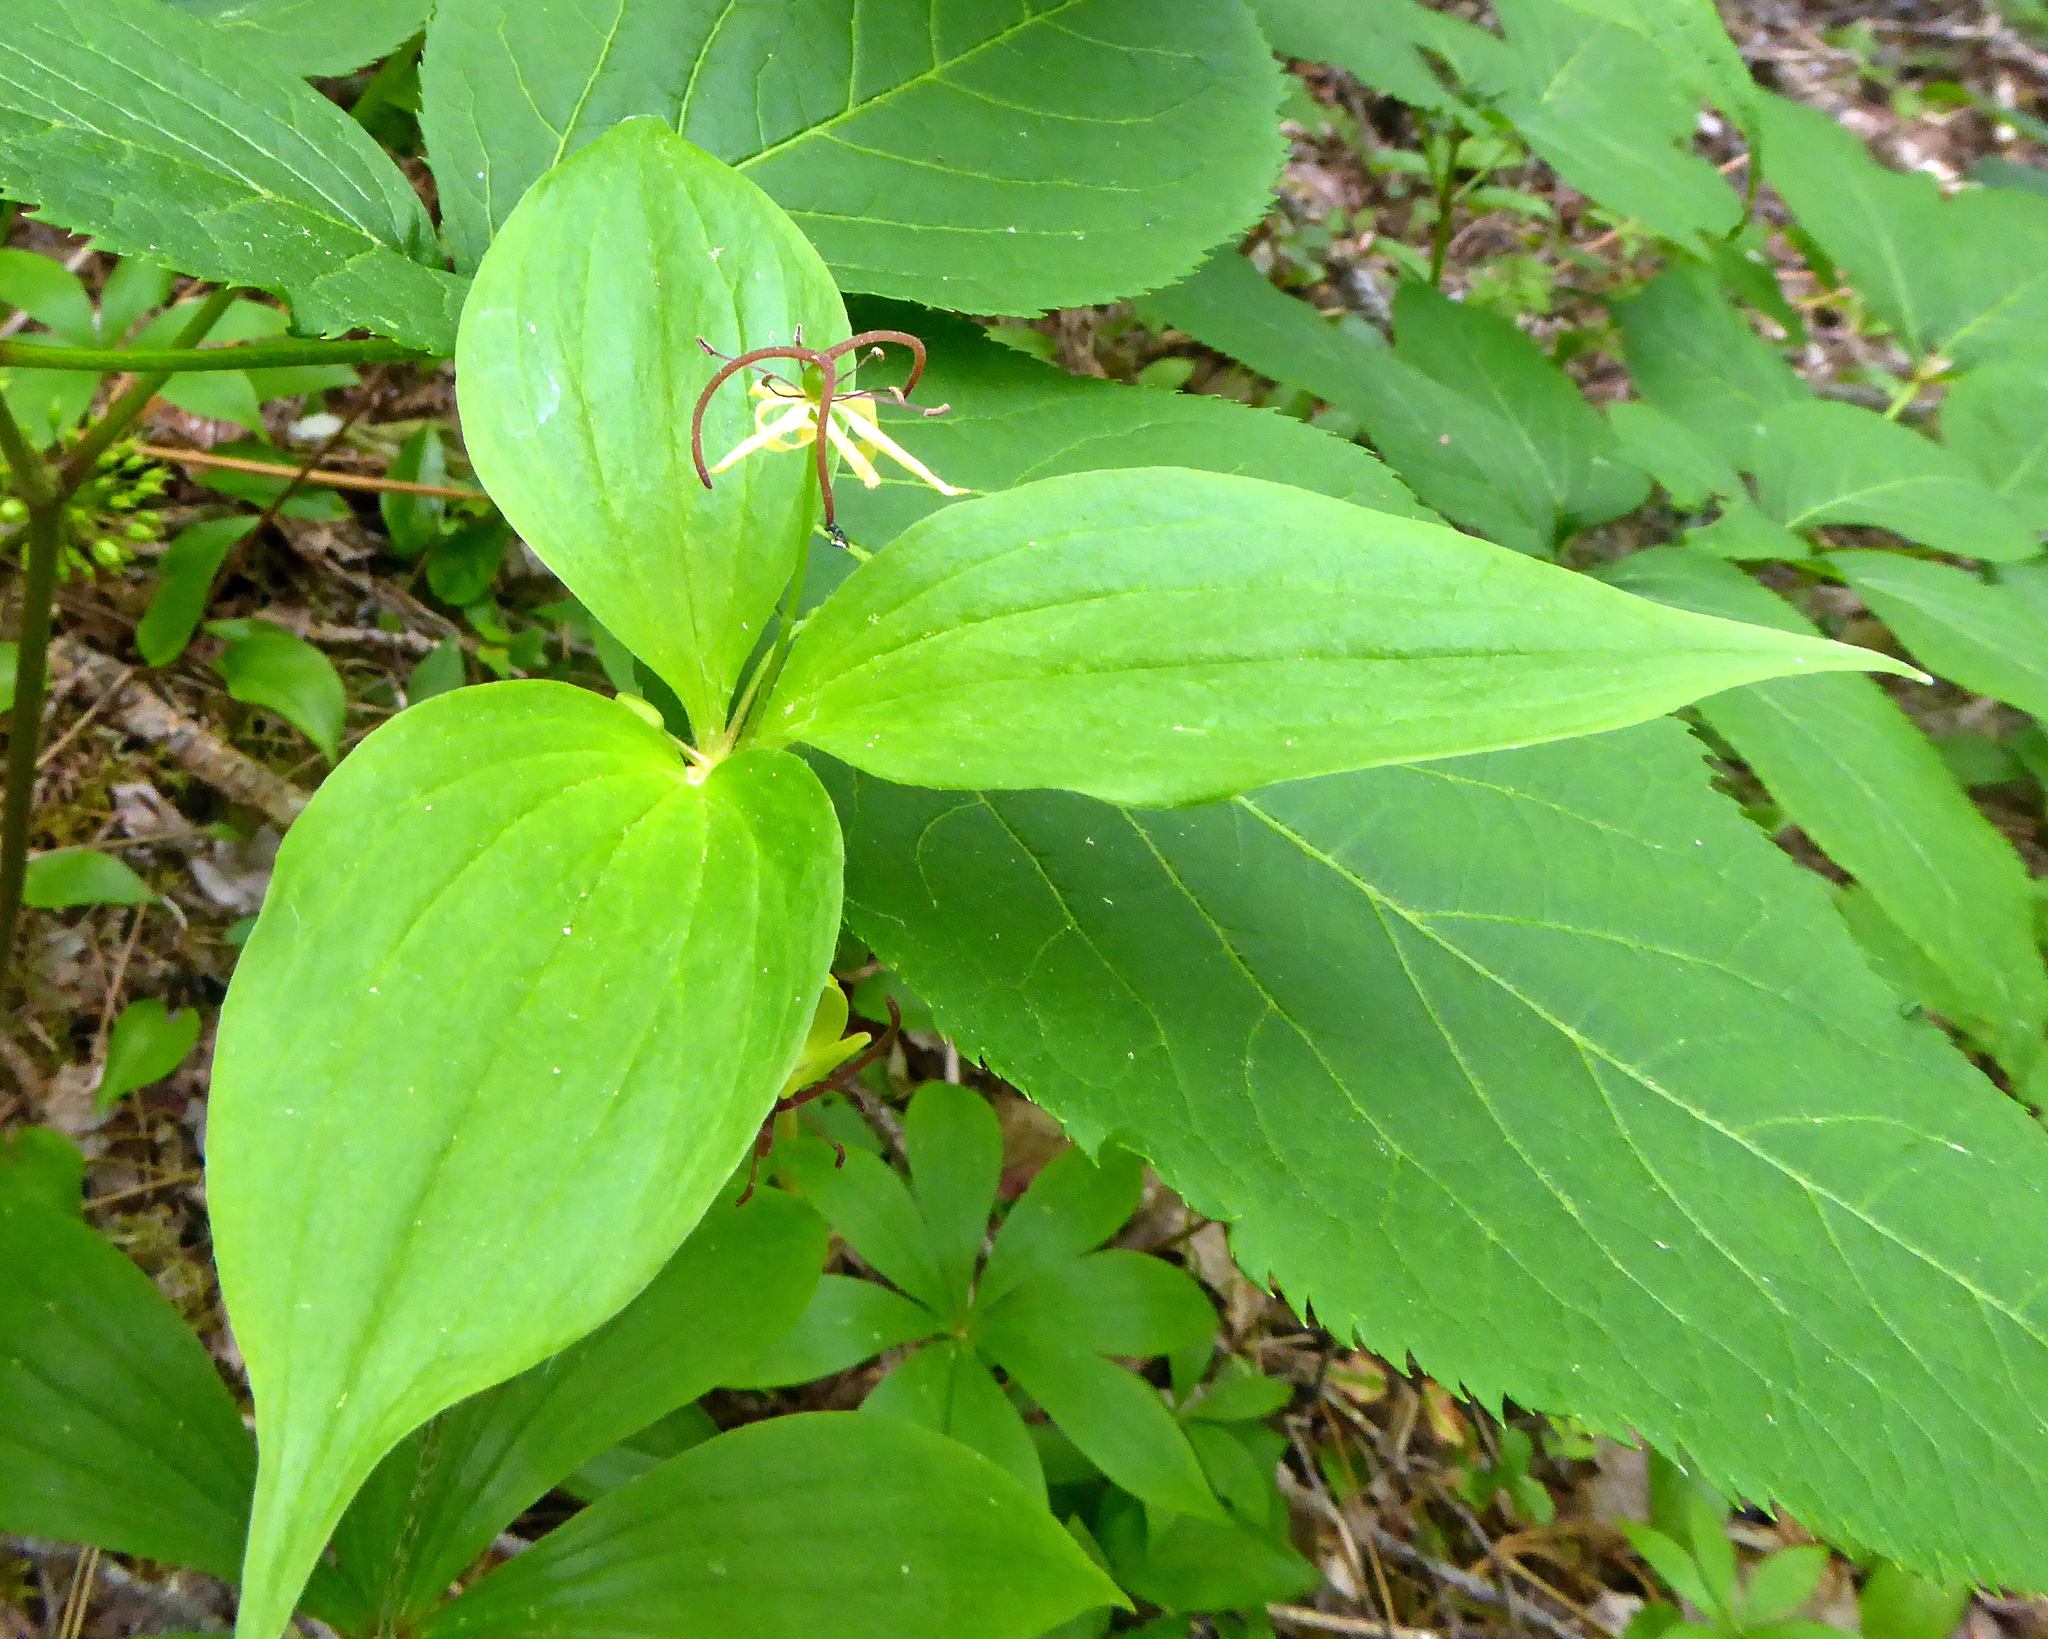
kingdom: Plantae
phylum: Tracheophyta
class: Liliopsida
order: Liliales
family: Liliaceae
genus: Medeola
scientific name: Medeola virginiana
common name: Indian cucumber-root
